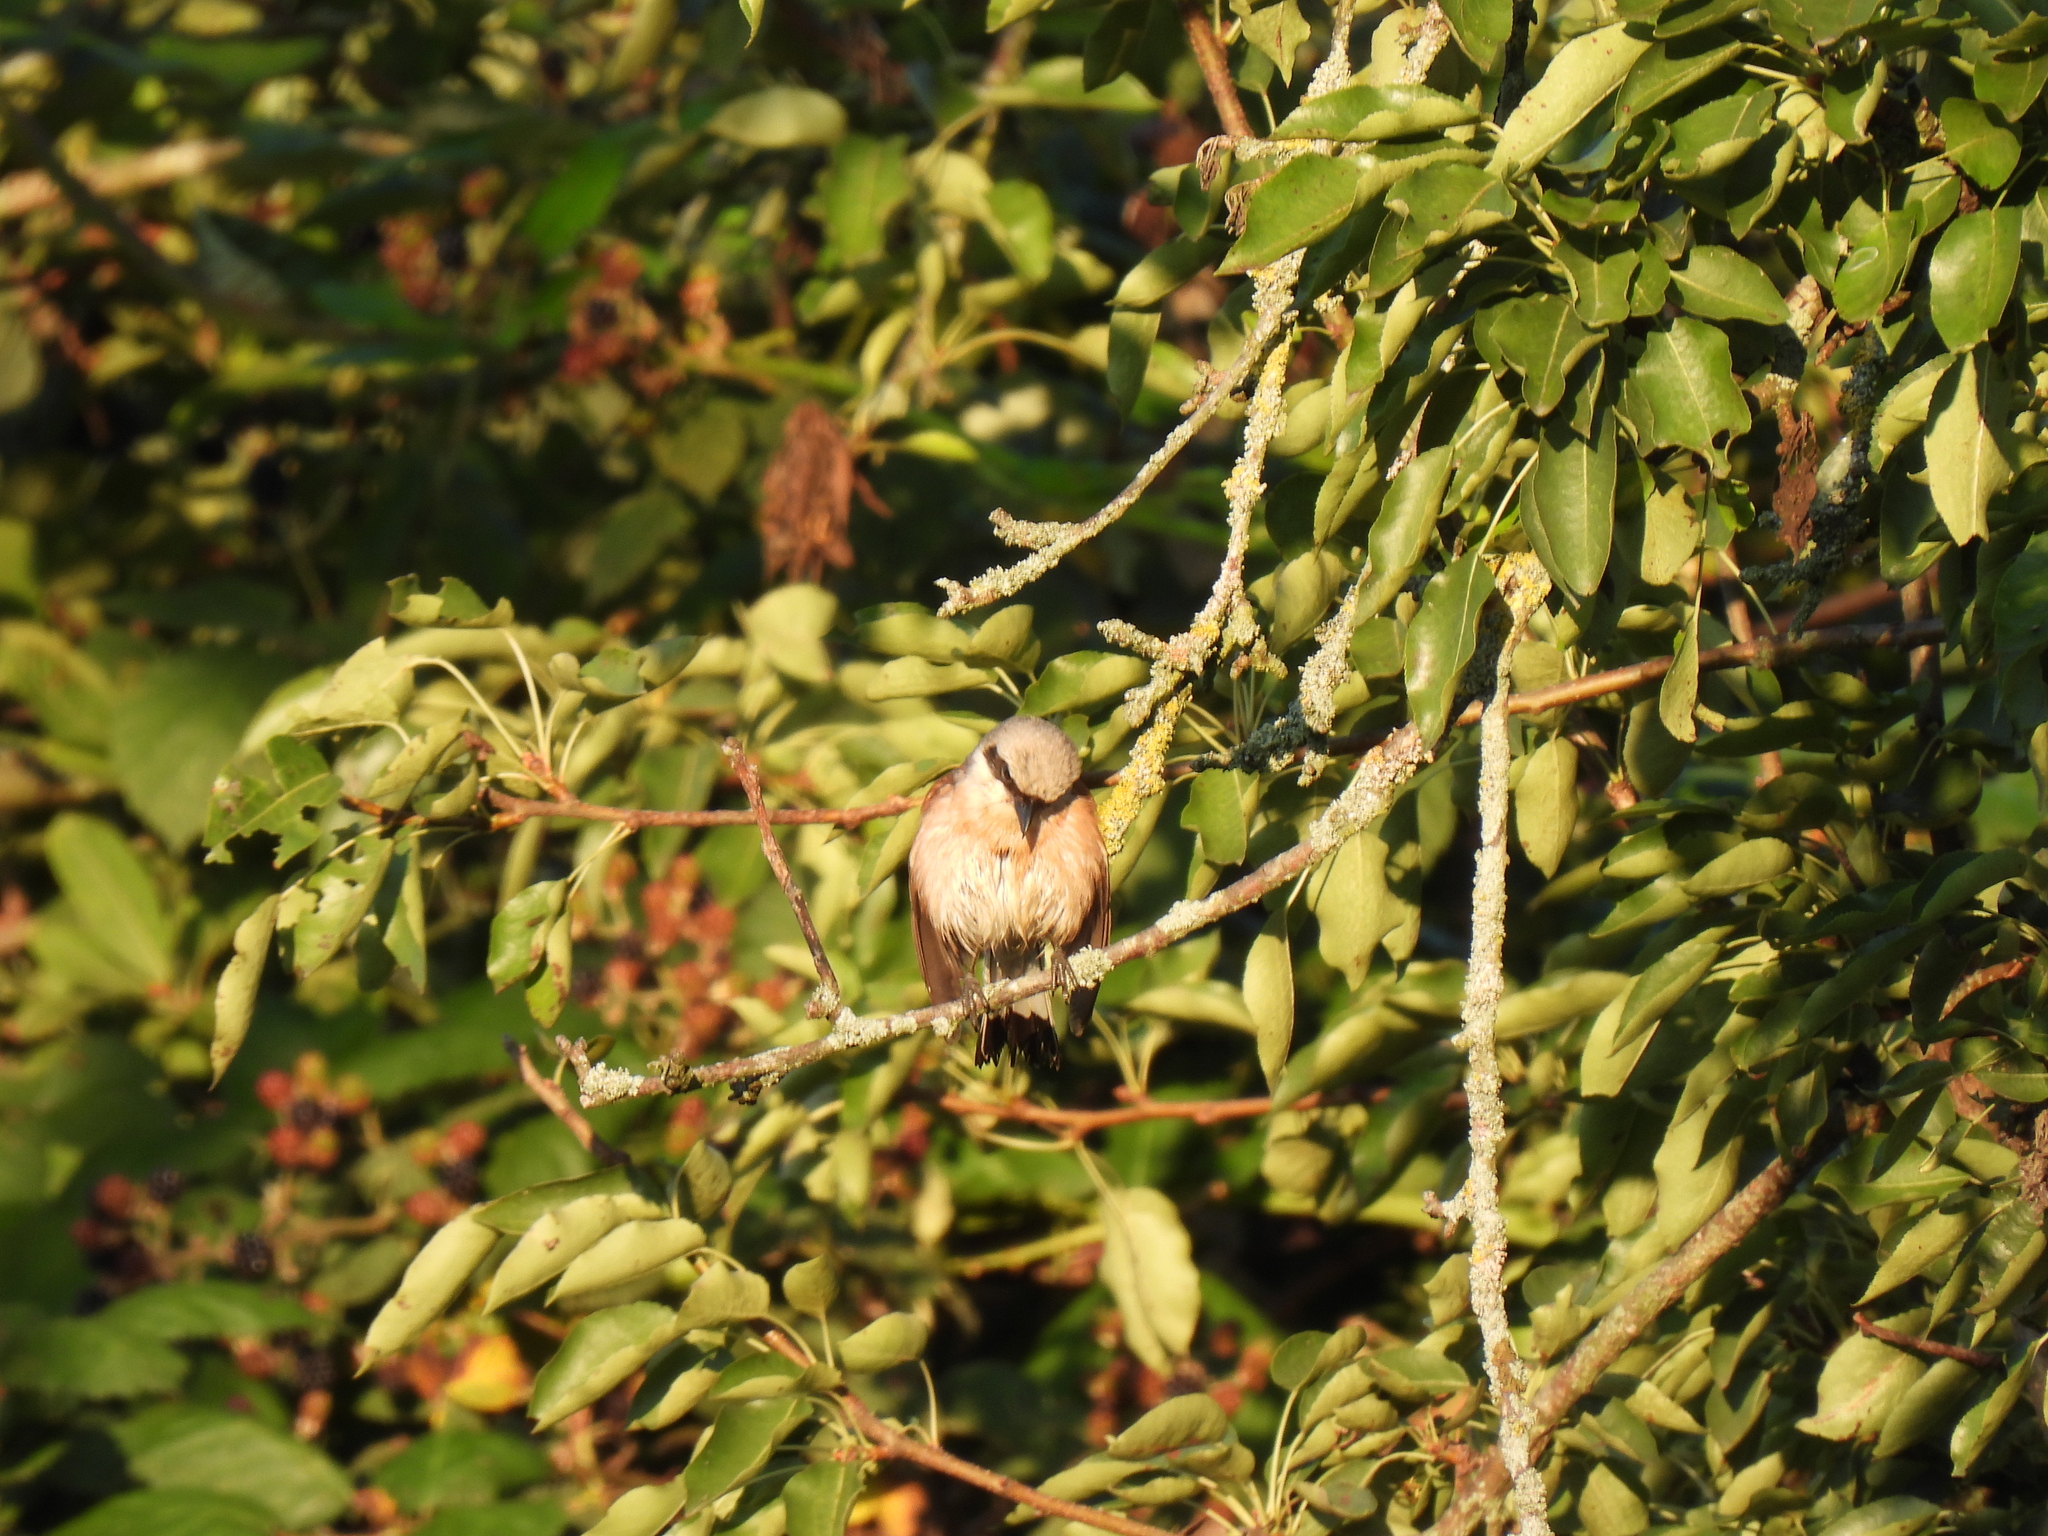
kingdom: Animalia
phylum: Chordata
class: Aves
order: Passeriformes
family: Laniidae
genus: Lanius
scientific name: Lanius collurio
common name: Red-backed shrike
